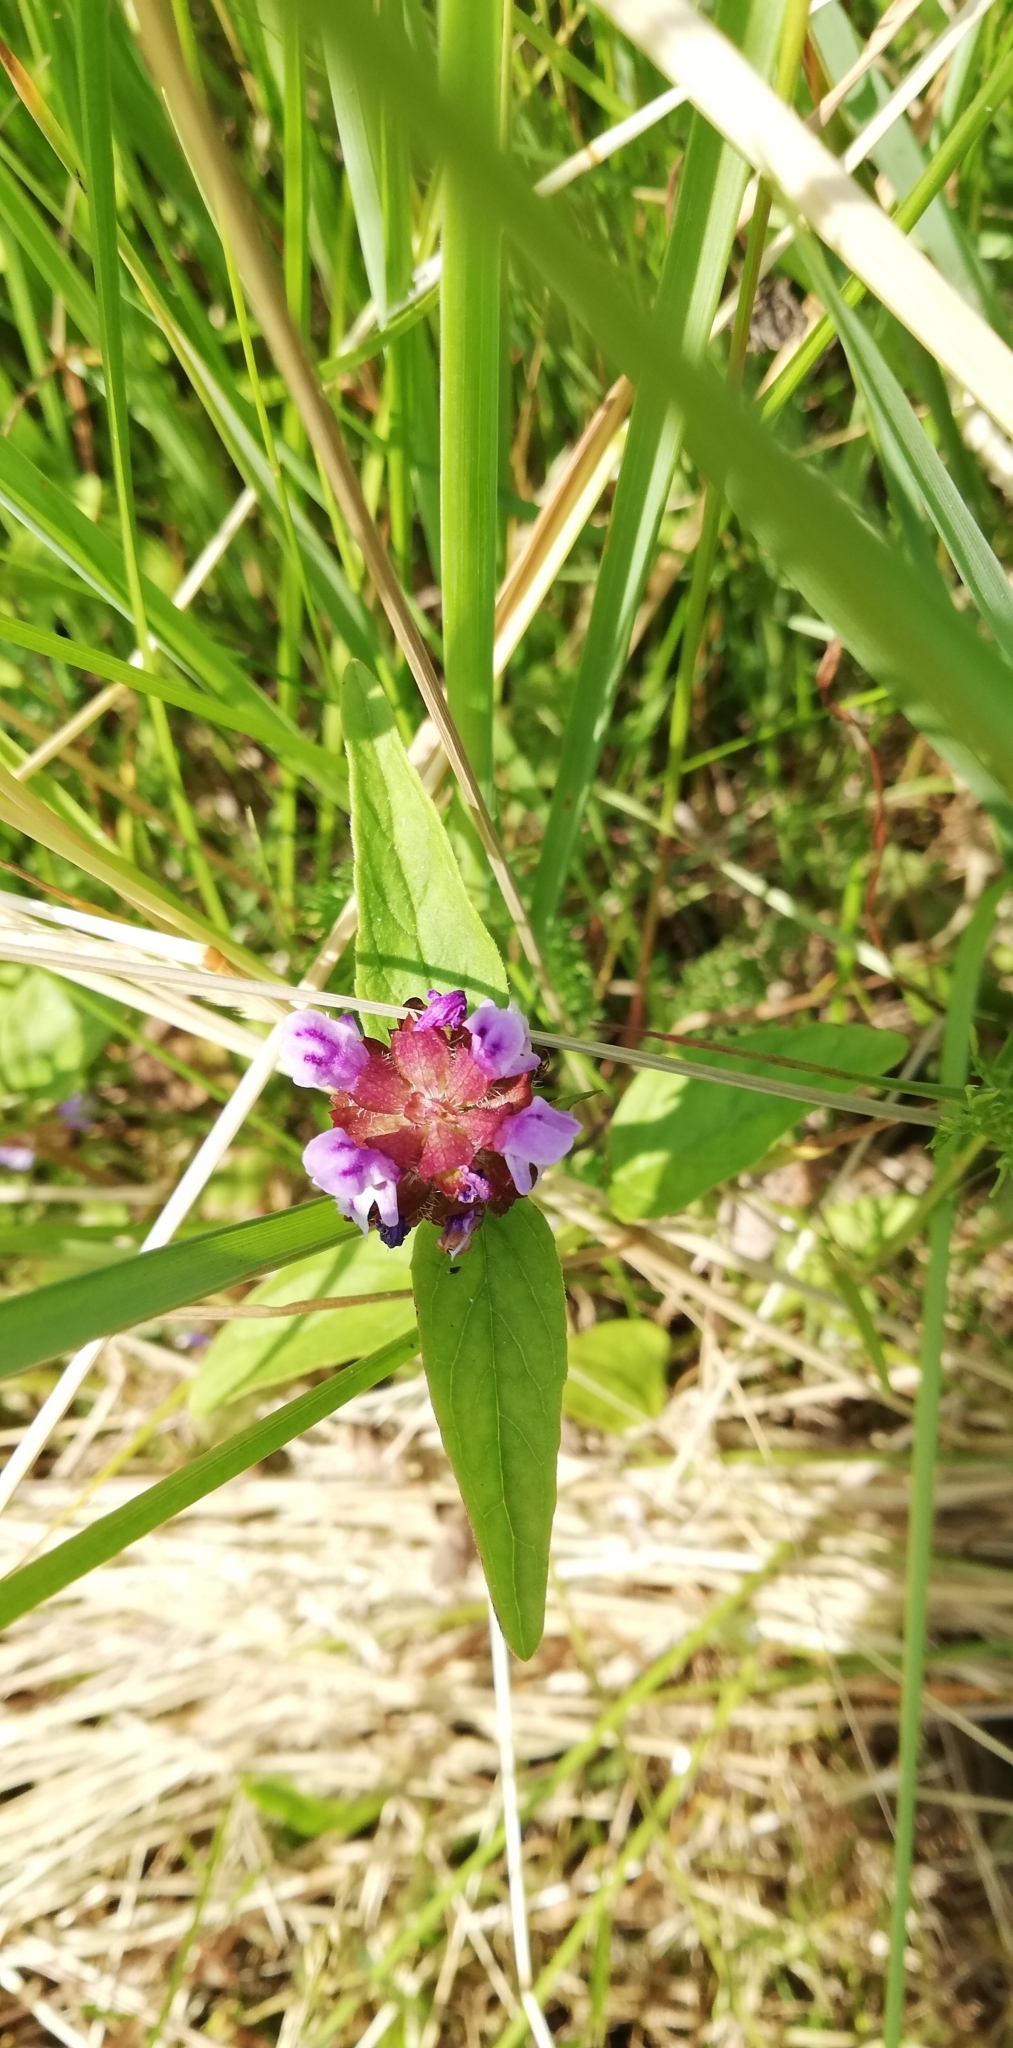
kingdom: Plantae
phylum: Tracheophyta
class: Magnoliopsida
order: Lamiales
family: Lamiaceae
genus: Prunella
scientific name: Prunella vulgaris
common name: Heal-all
